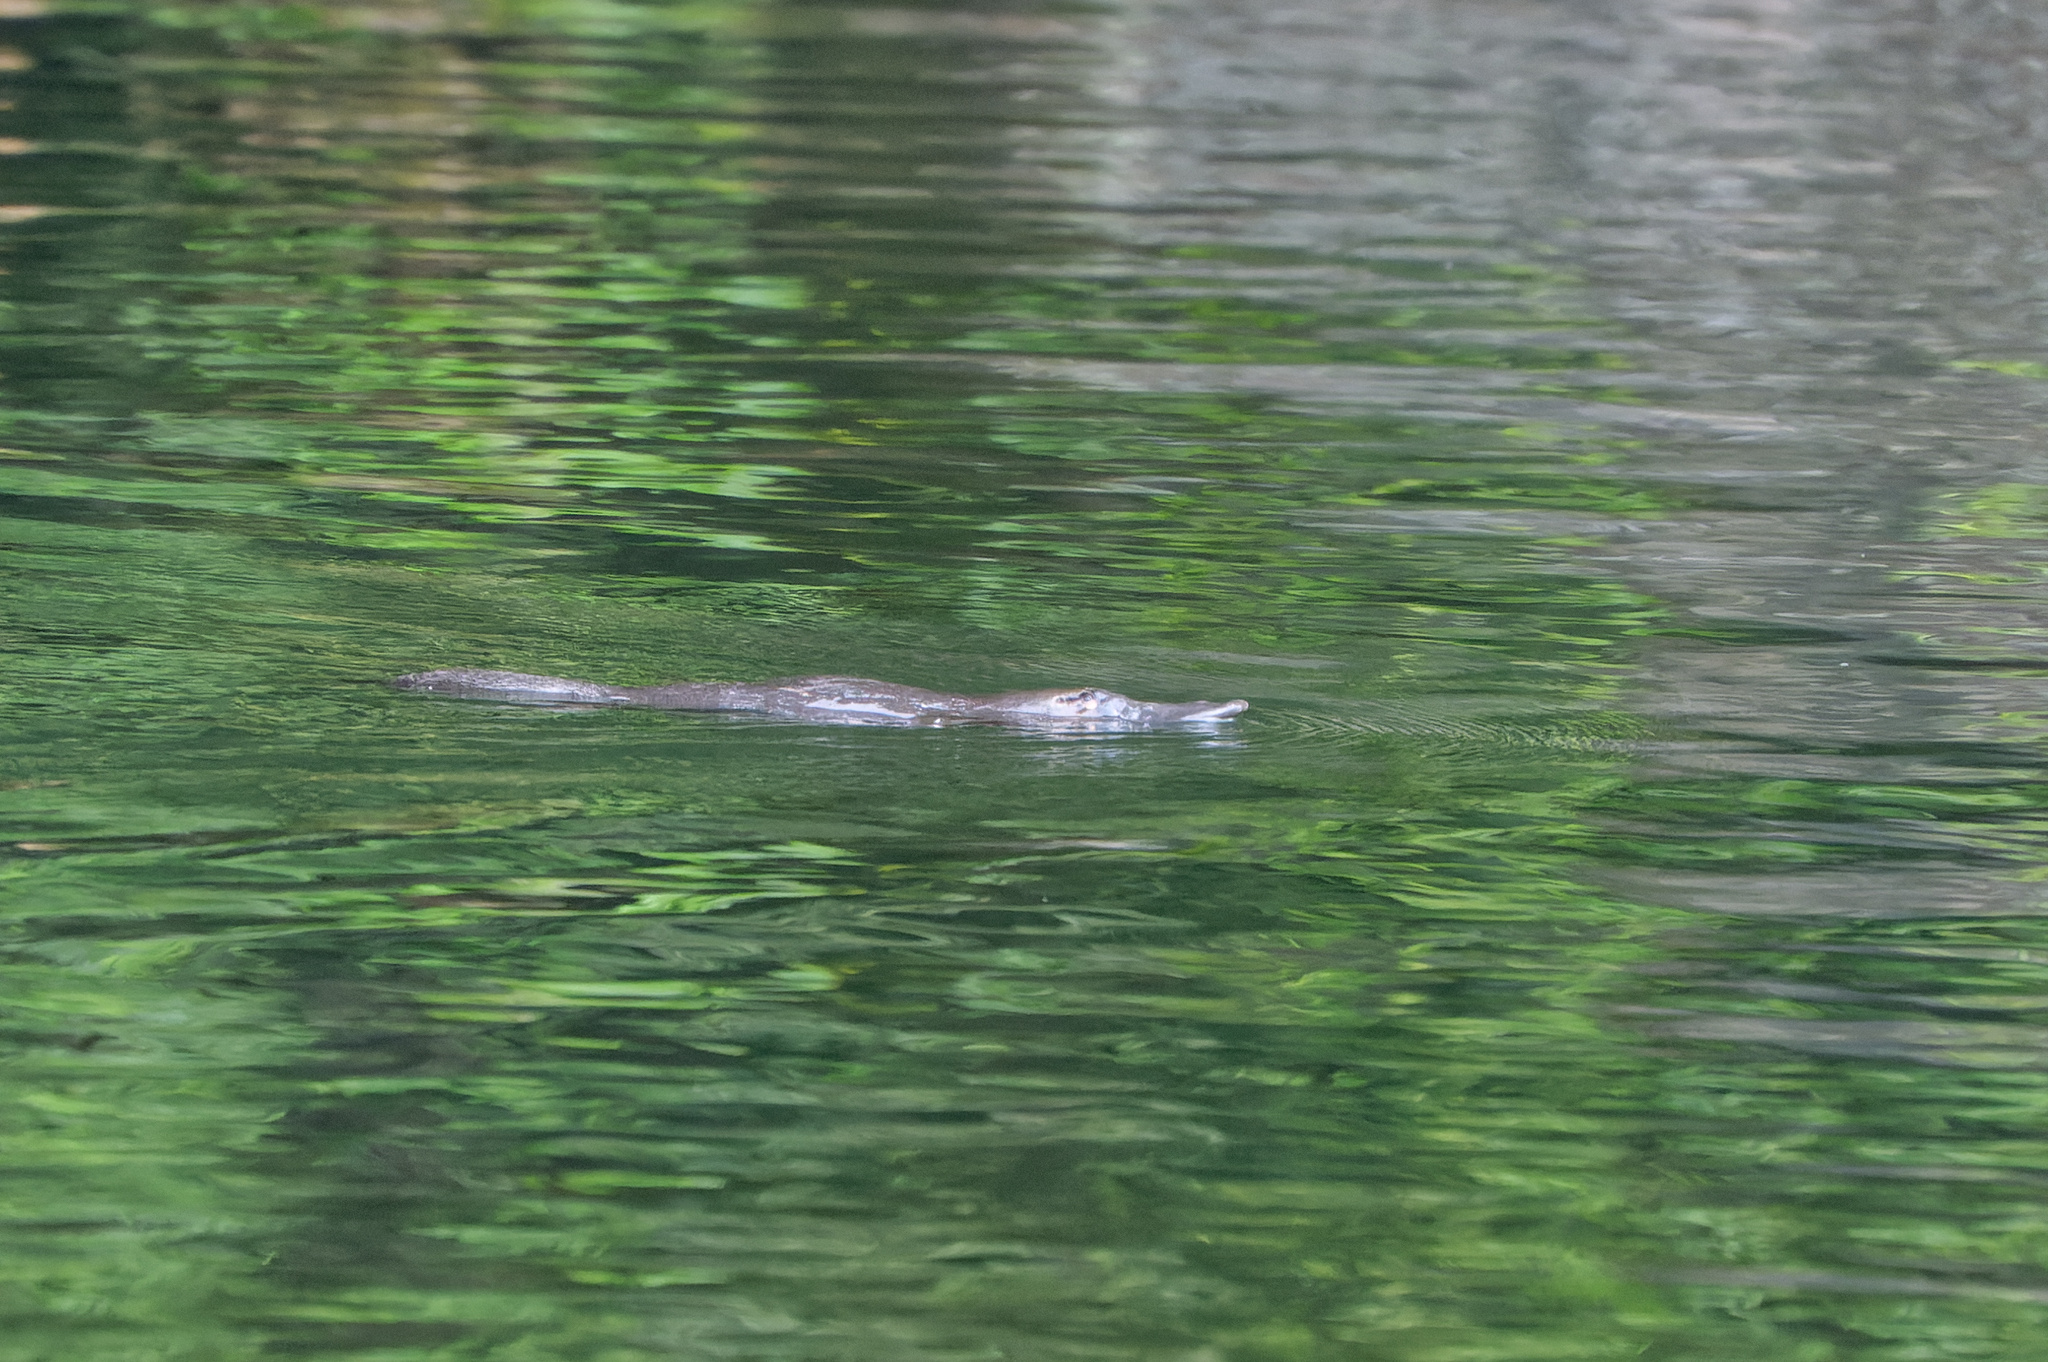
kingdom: Animalia
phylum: Chordata
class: Mammalia
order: Monotremata
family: Ornithorhynchidae
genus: Ornithorhynchus
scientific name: Ornithorhynchus anatinus
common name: Platypus
